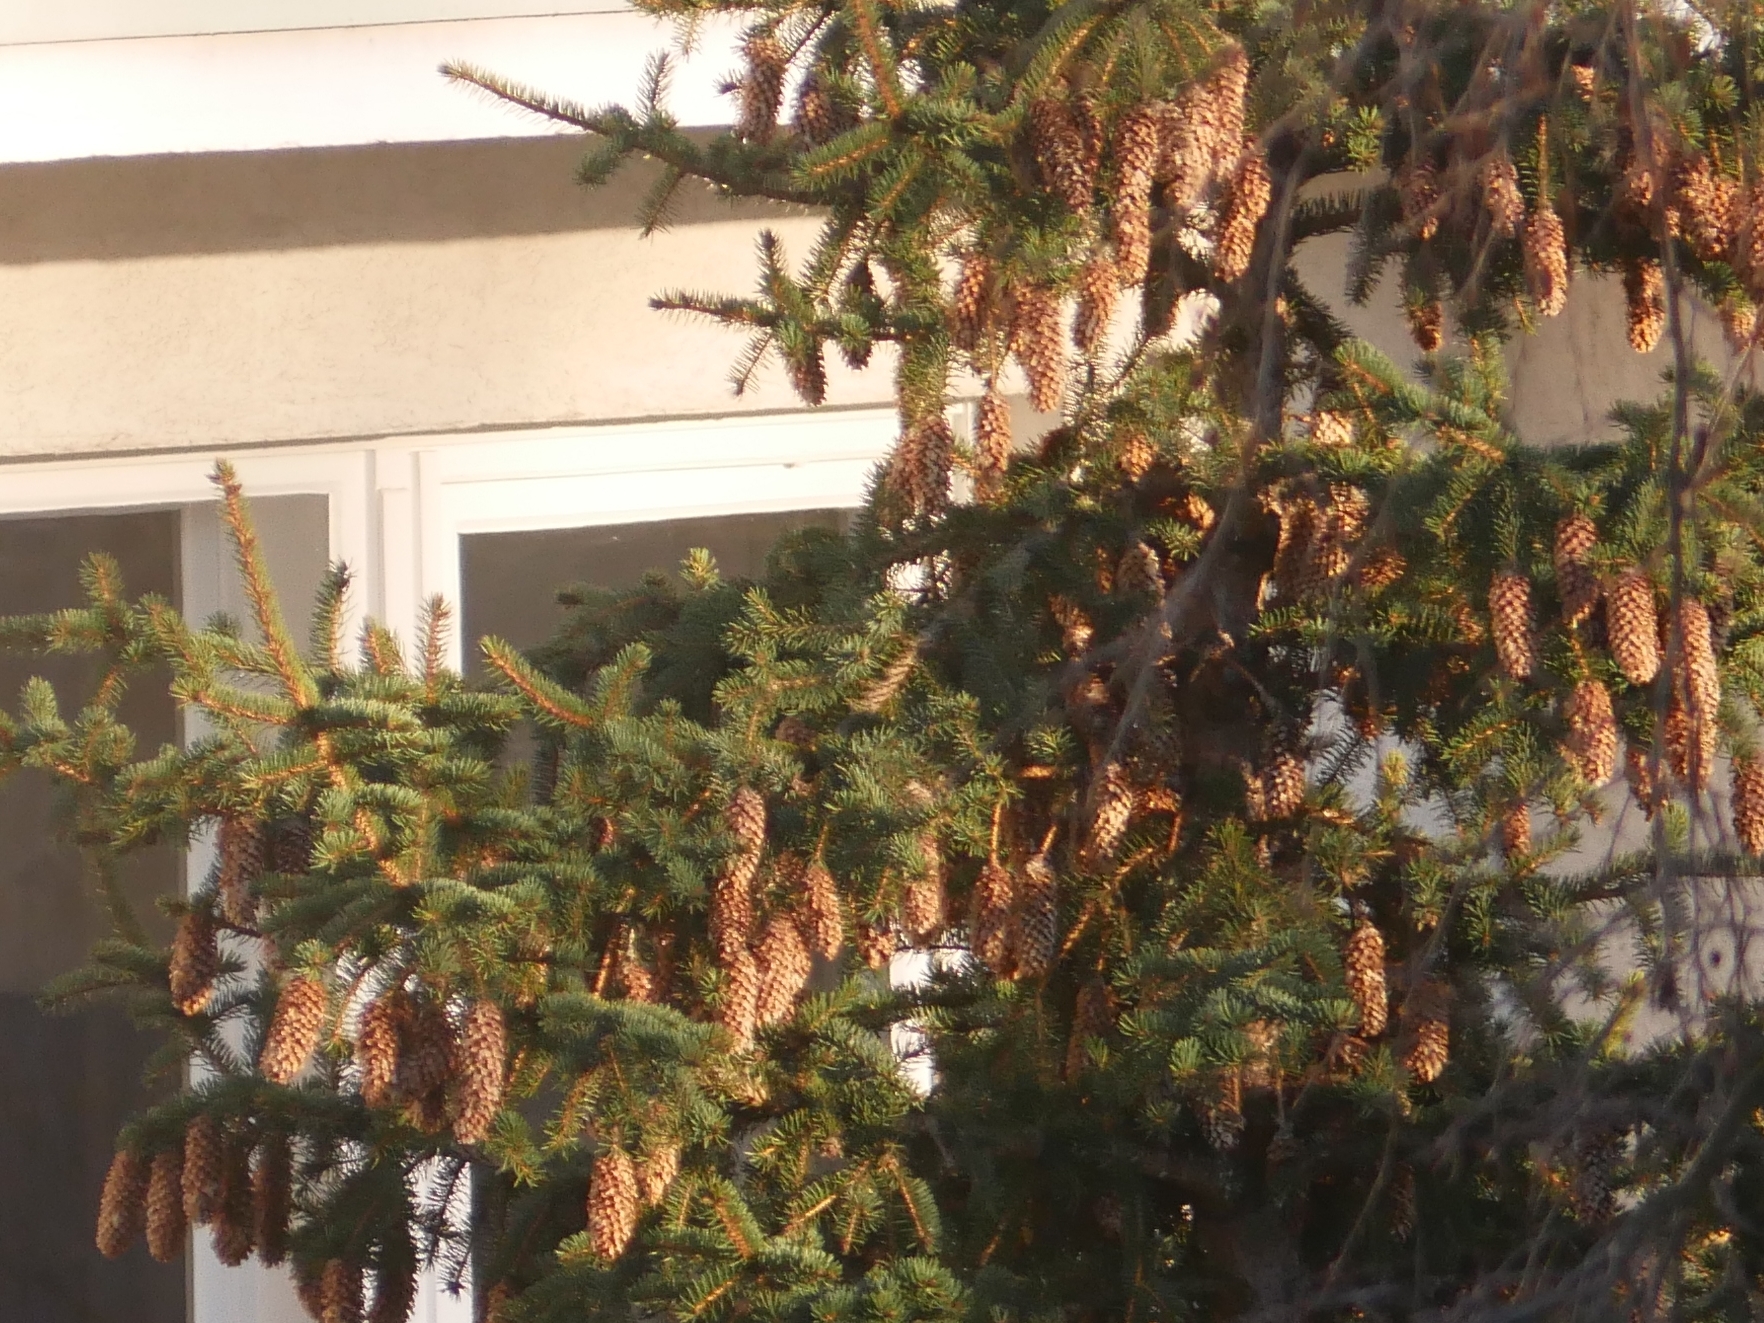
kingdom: Plantae
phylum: Tracheophyta
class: Pinopsida
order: Pinales
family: Pinaceae
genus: Picea
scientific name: Picea abies
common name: Norway spruce
